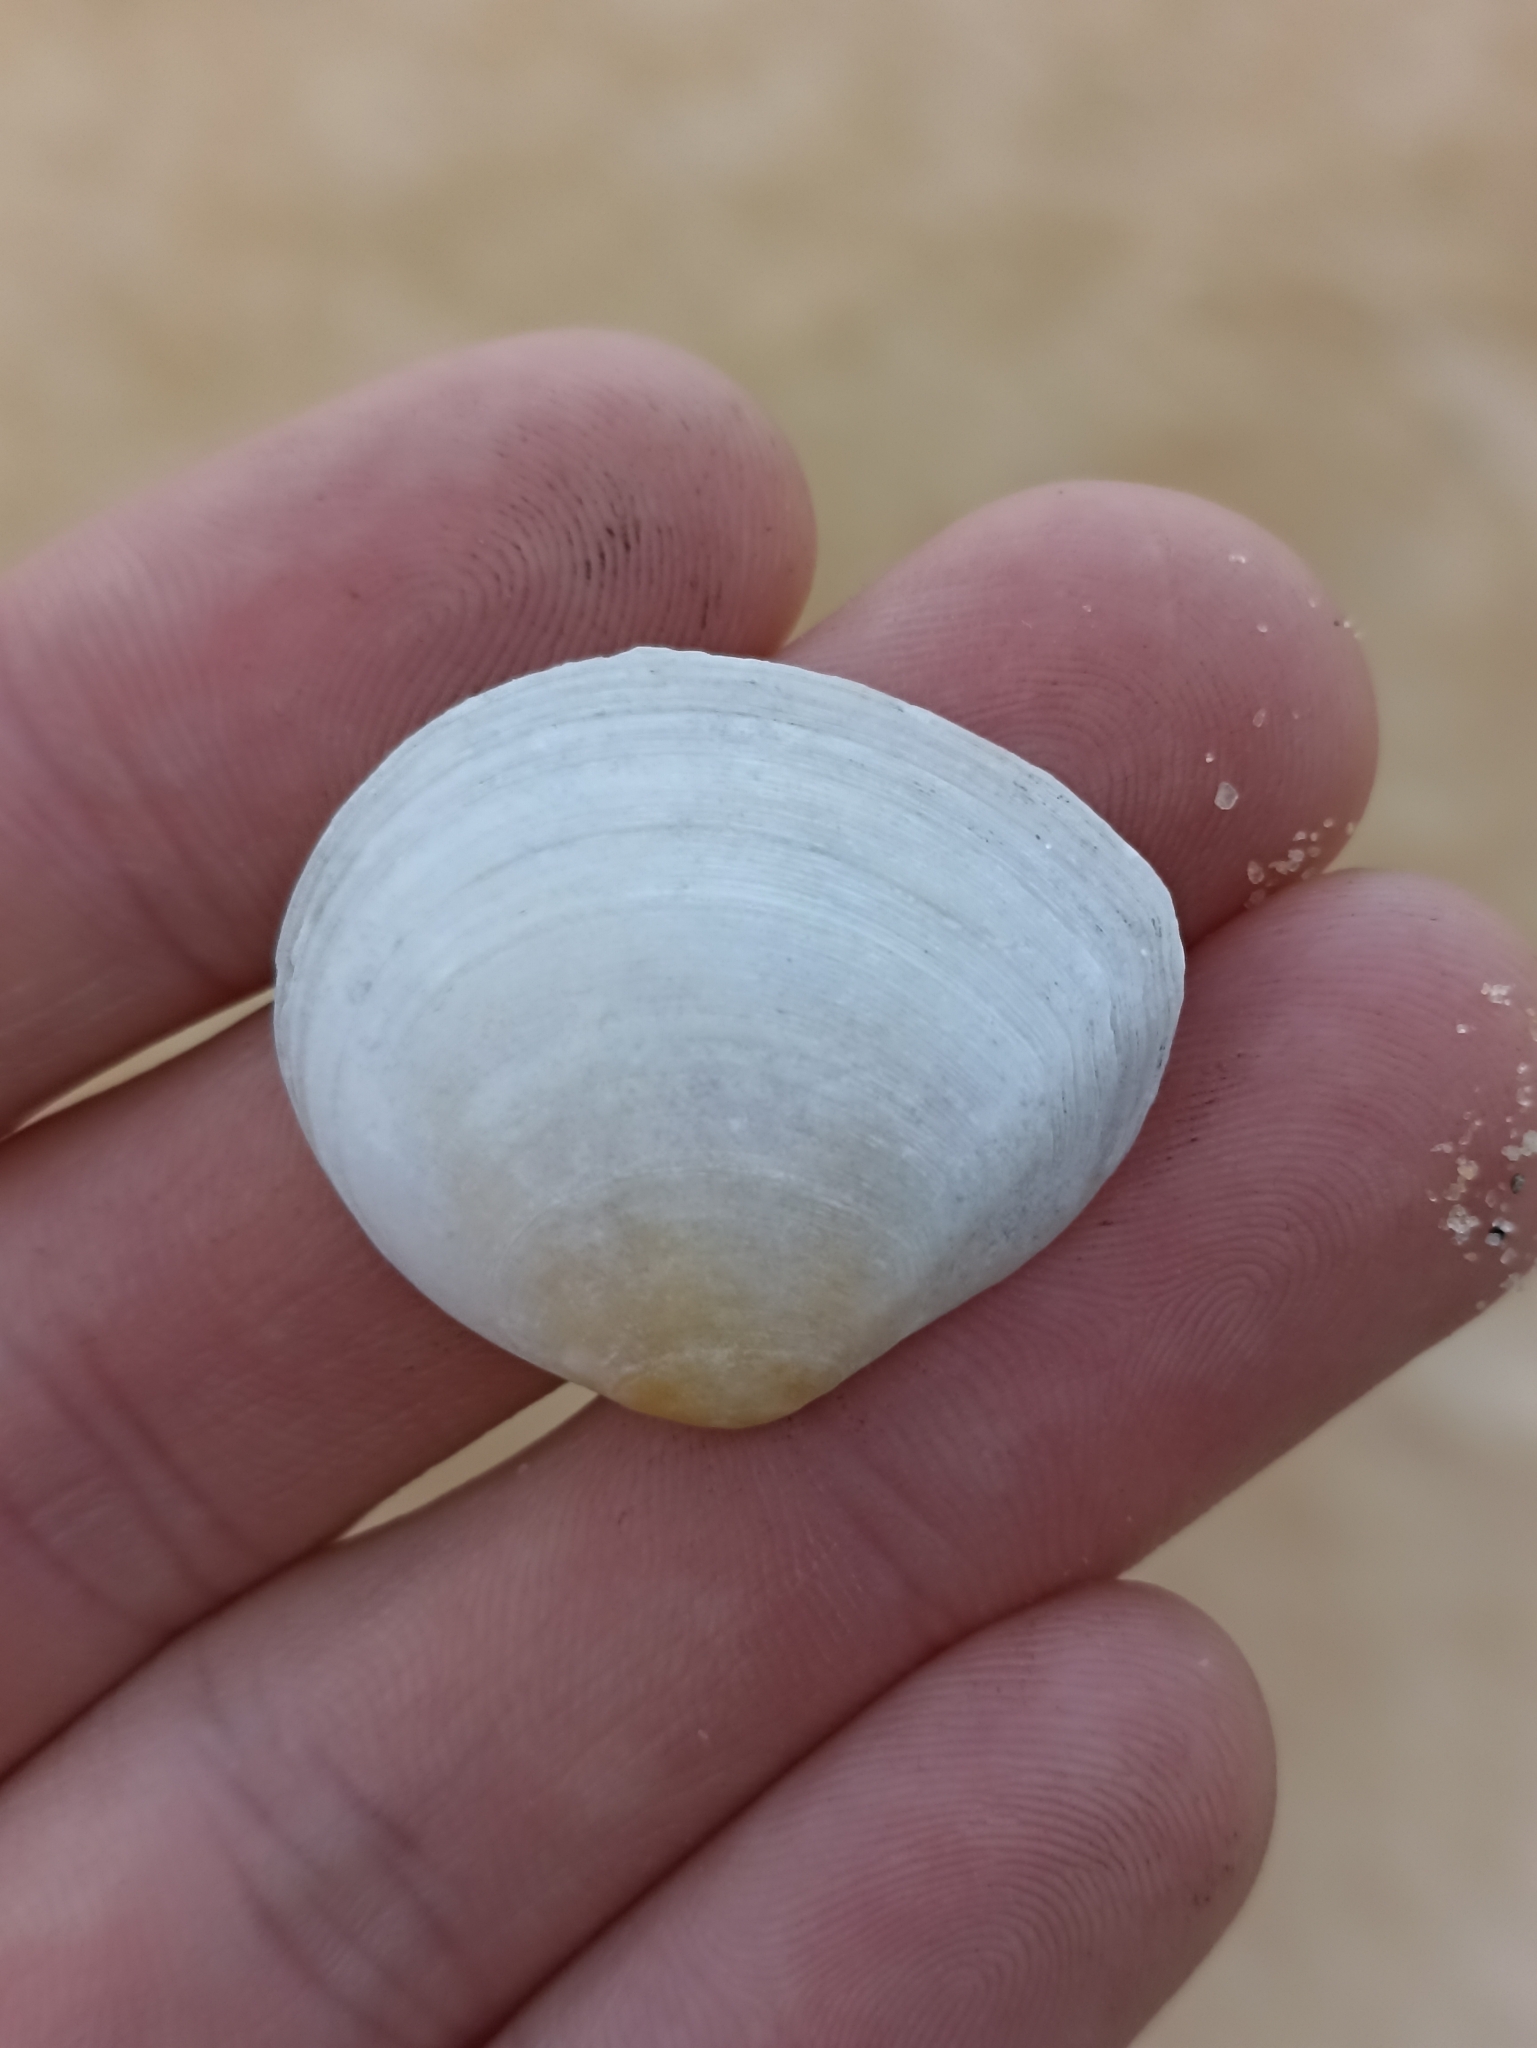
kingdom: Animalia
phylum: Mollusca
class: Bivalvia
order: Cardiida
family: Tellinidae
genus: Pseudarcopagia
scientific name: Pseudarcopagia disculus
